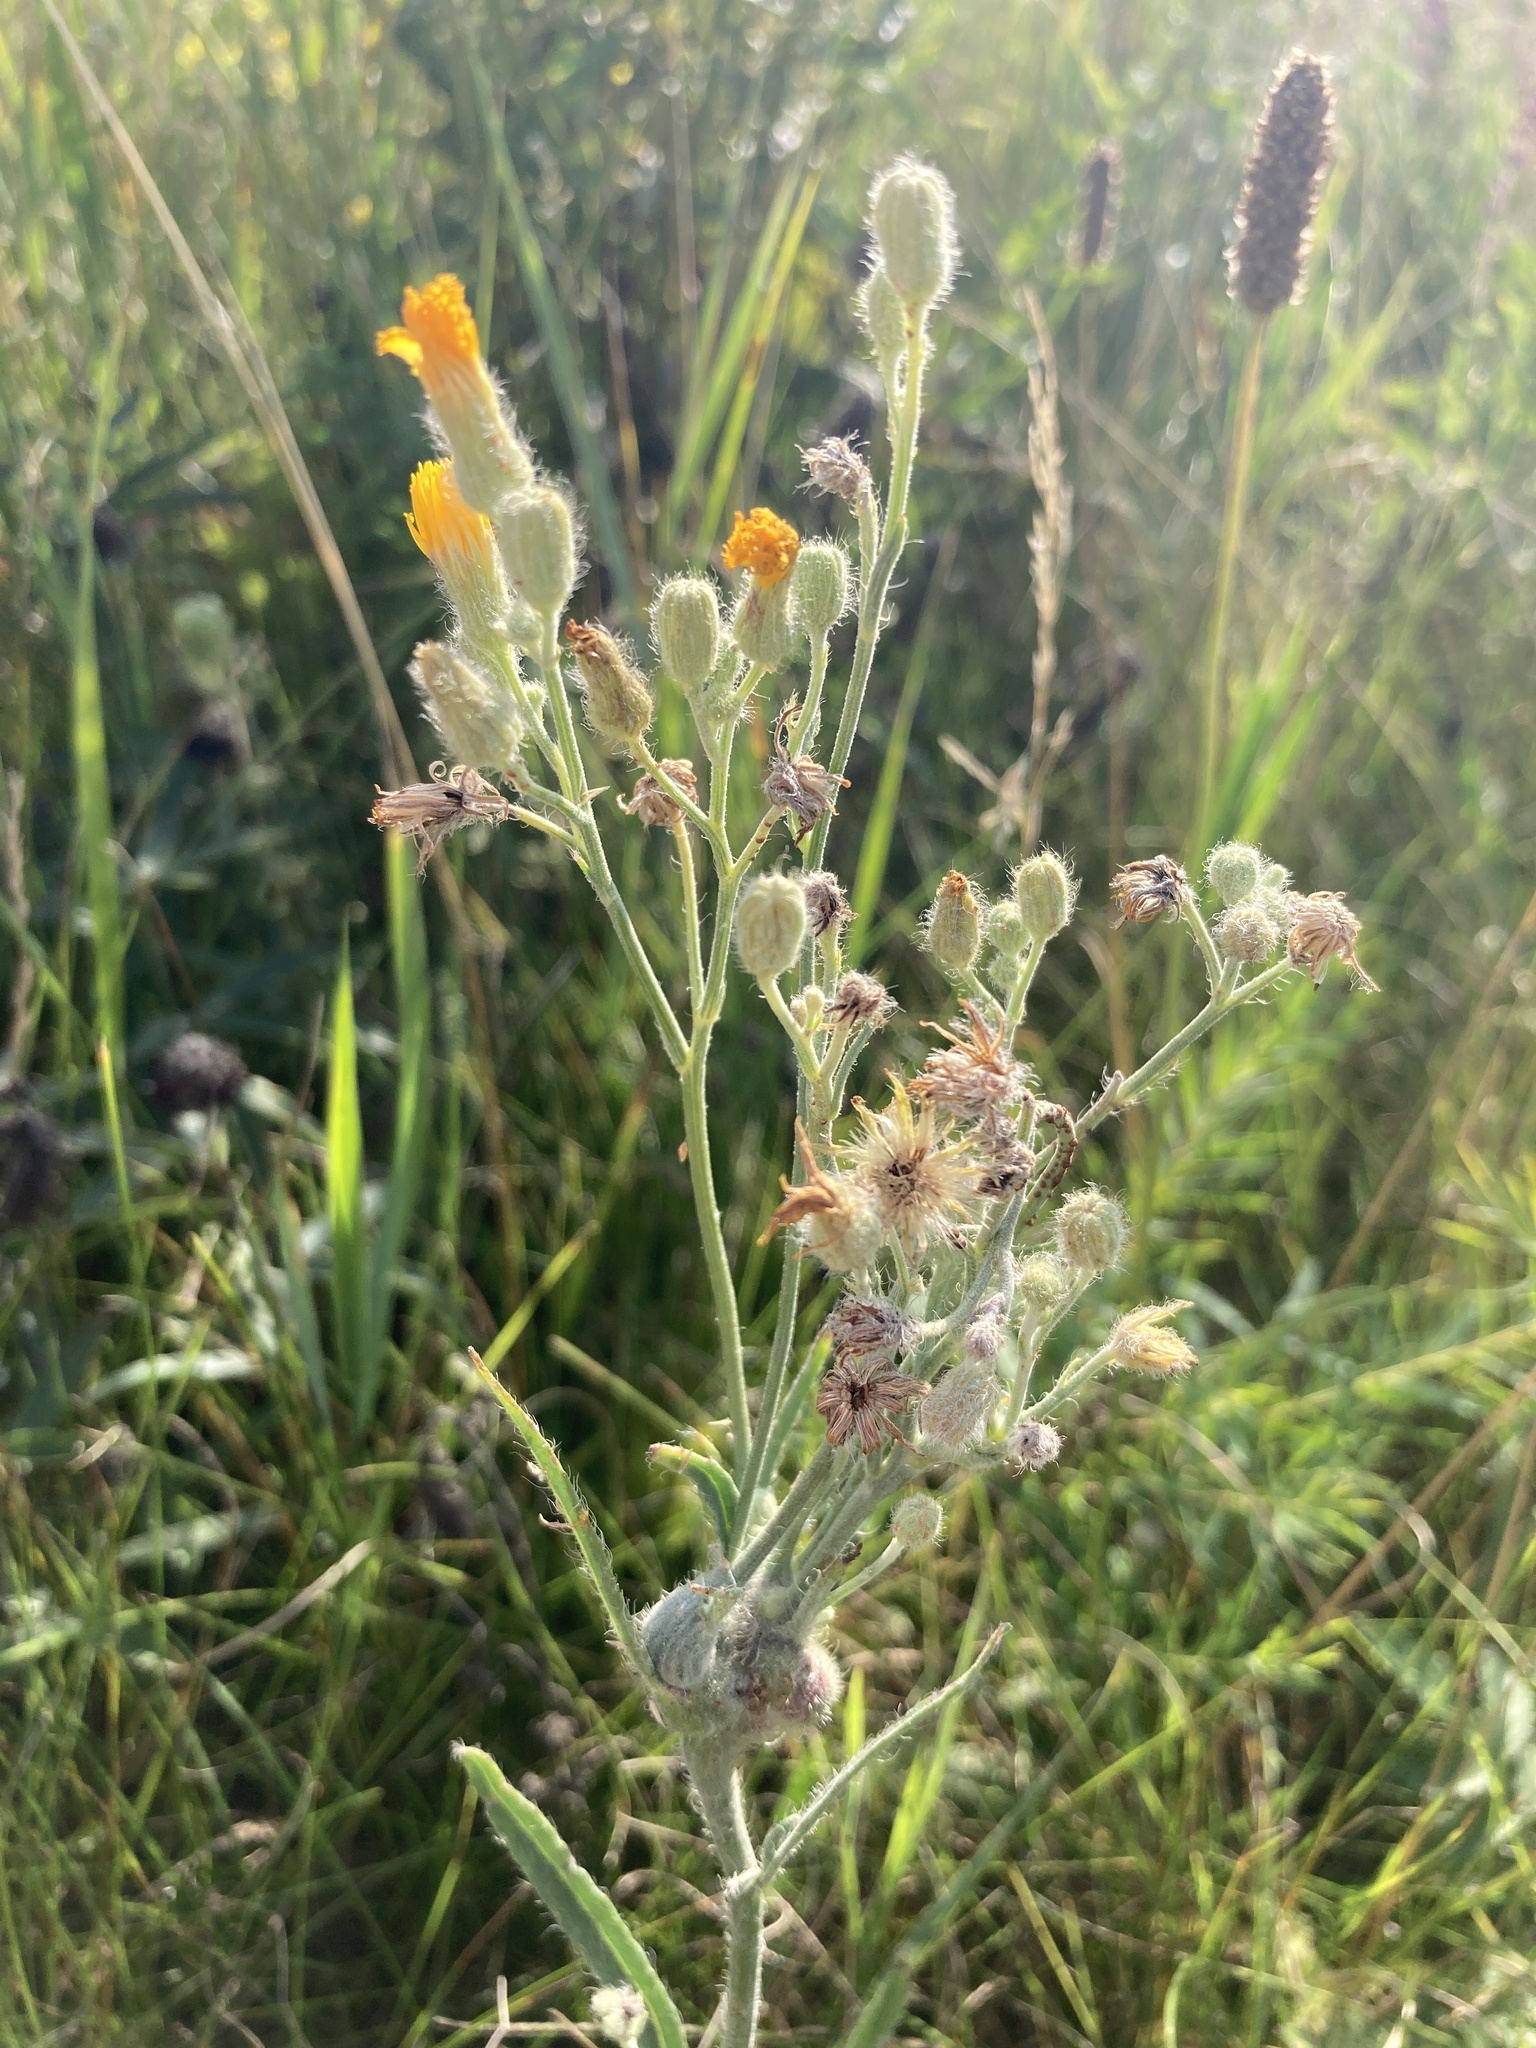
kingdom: Plantae
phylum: Tracheophyta
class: Magnoliopsida
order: Asterales
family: Asteraceae
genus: Pilosella
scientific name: Pilosella echioides
